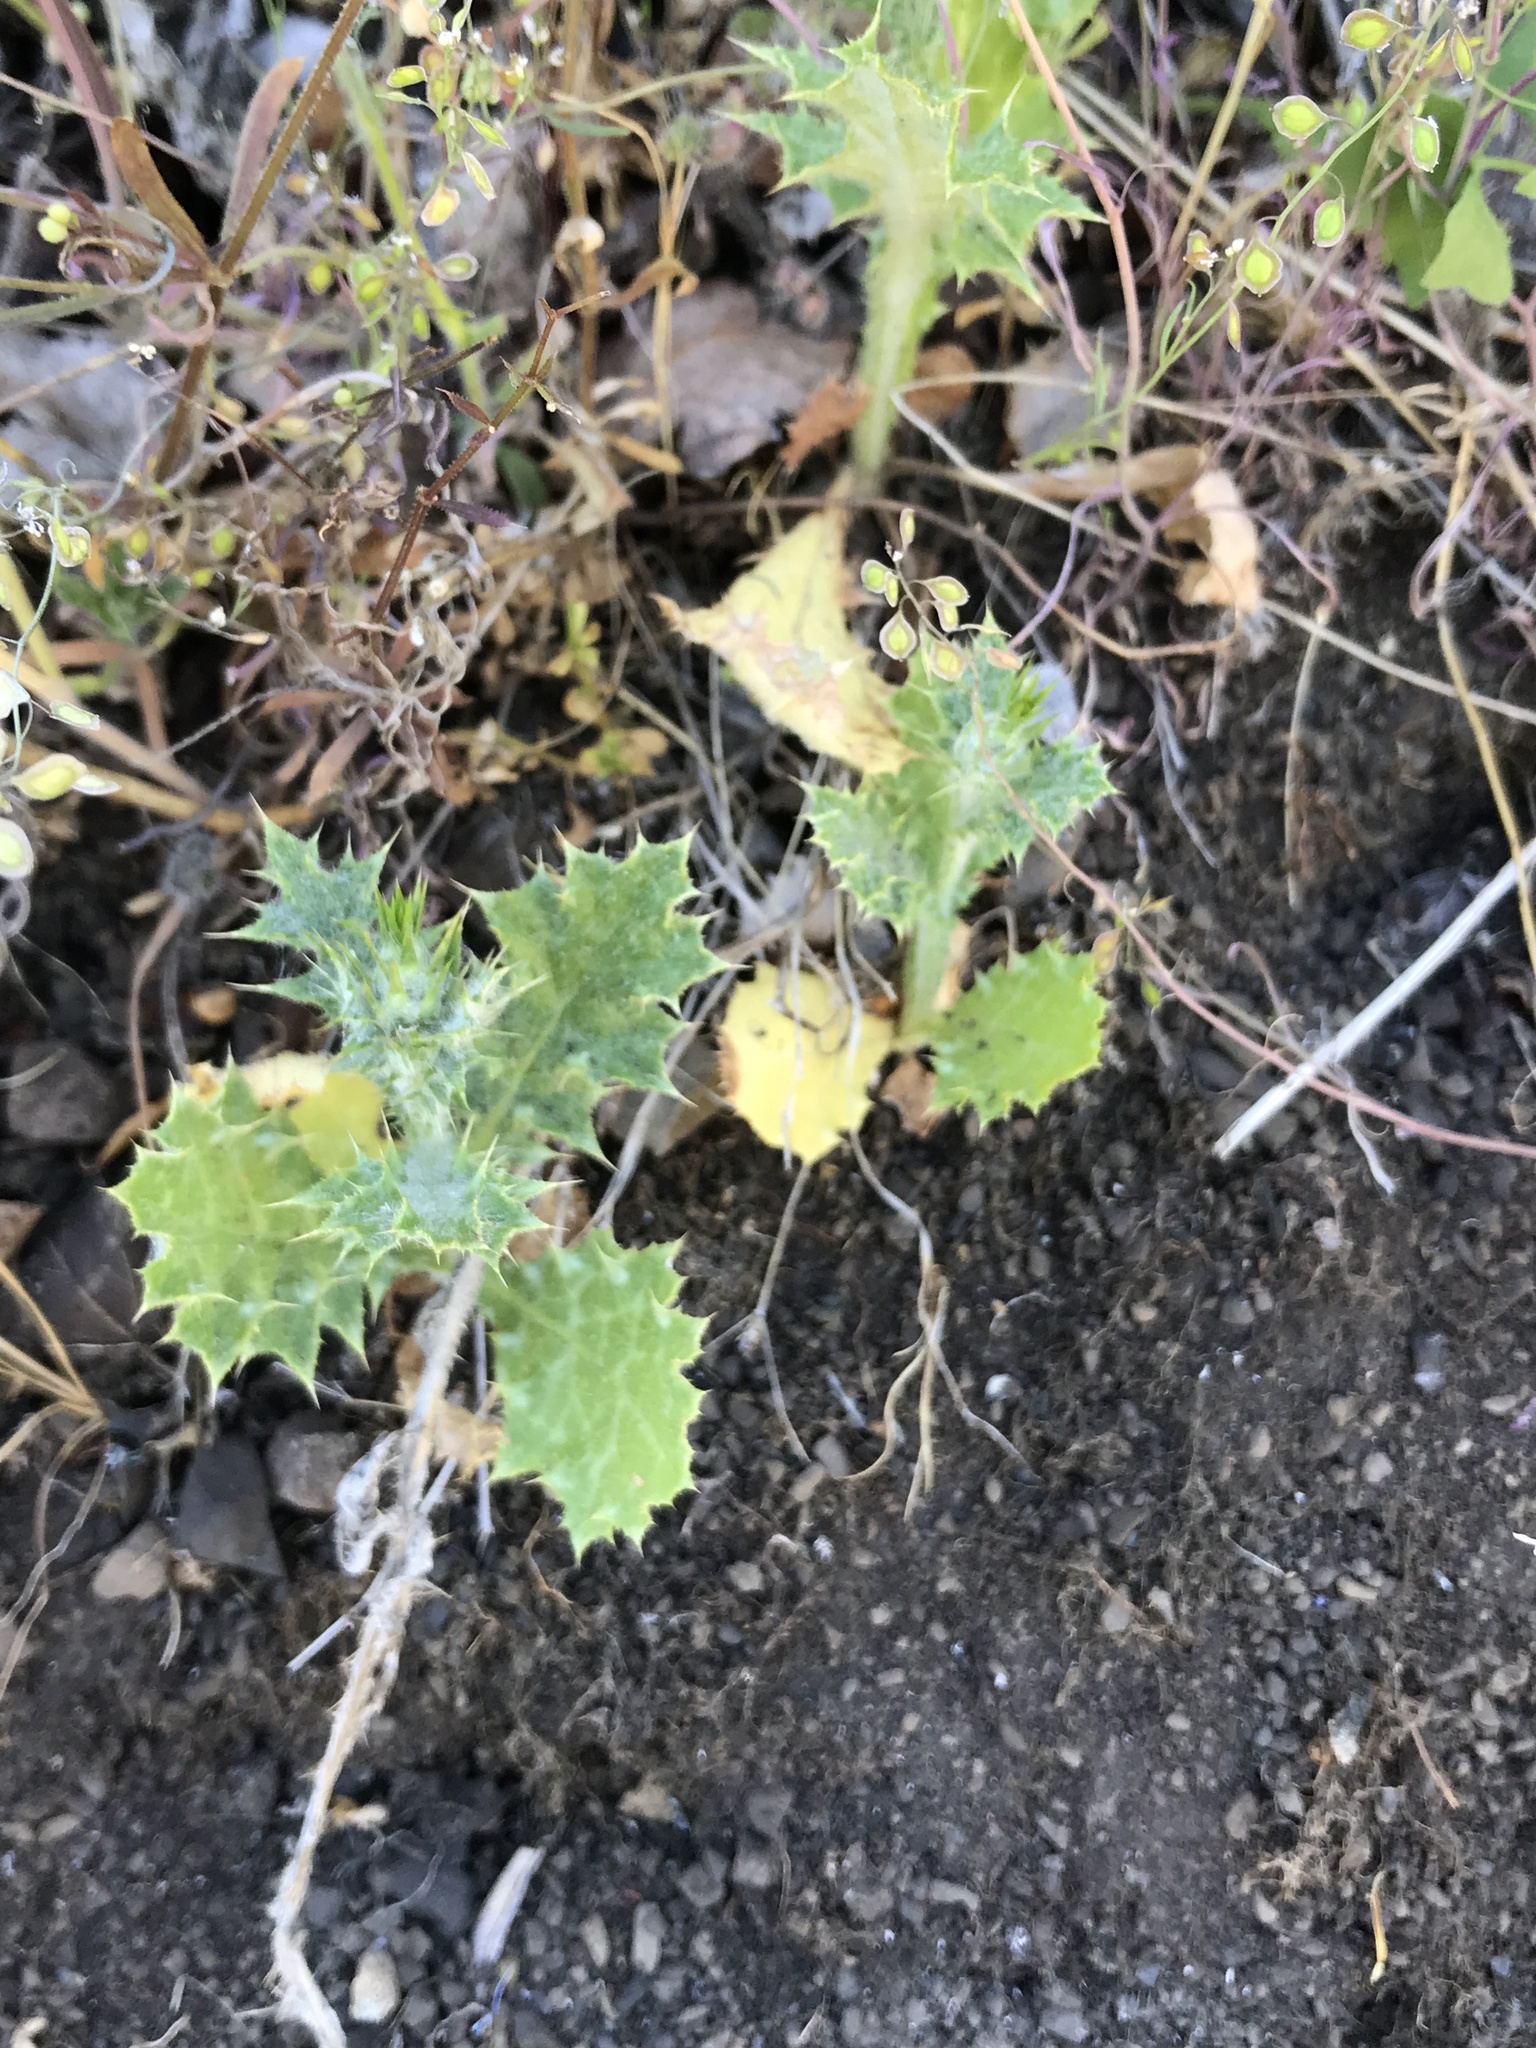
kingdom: Plantae
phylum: Tracheophyta
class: Magnoliopsida
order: Asterales
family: Asteraceae
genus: Carduus
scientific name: Carduus pycnocephalus
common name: Plymouth thistle
